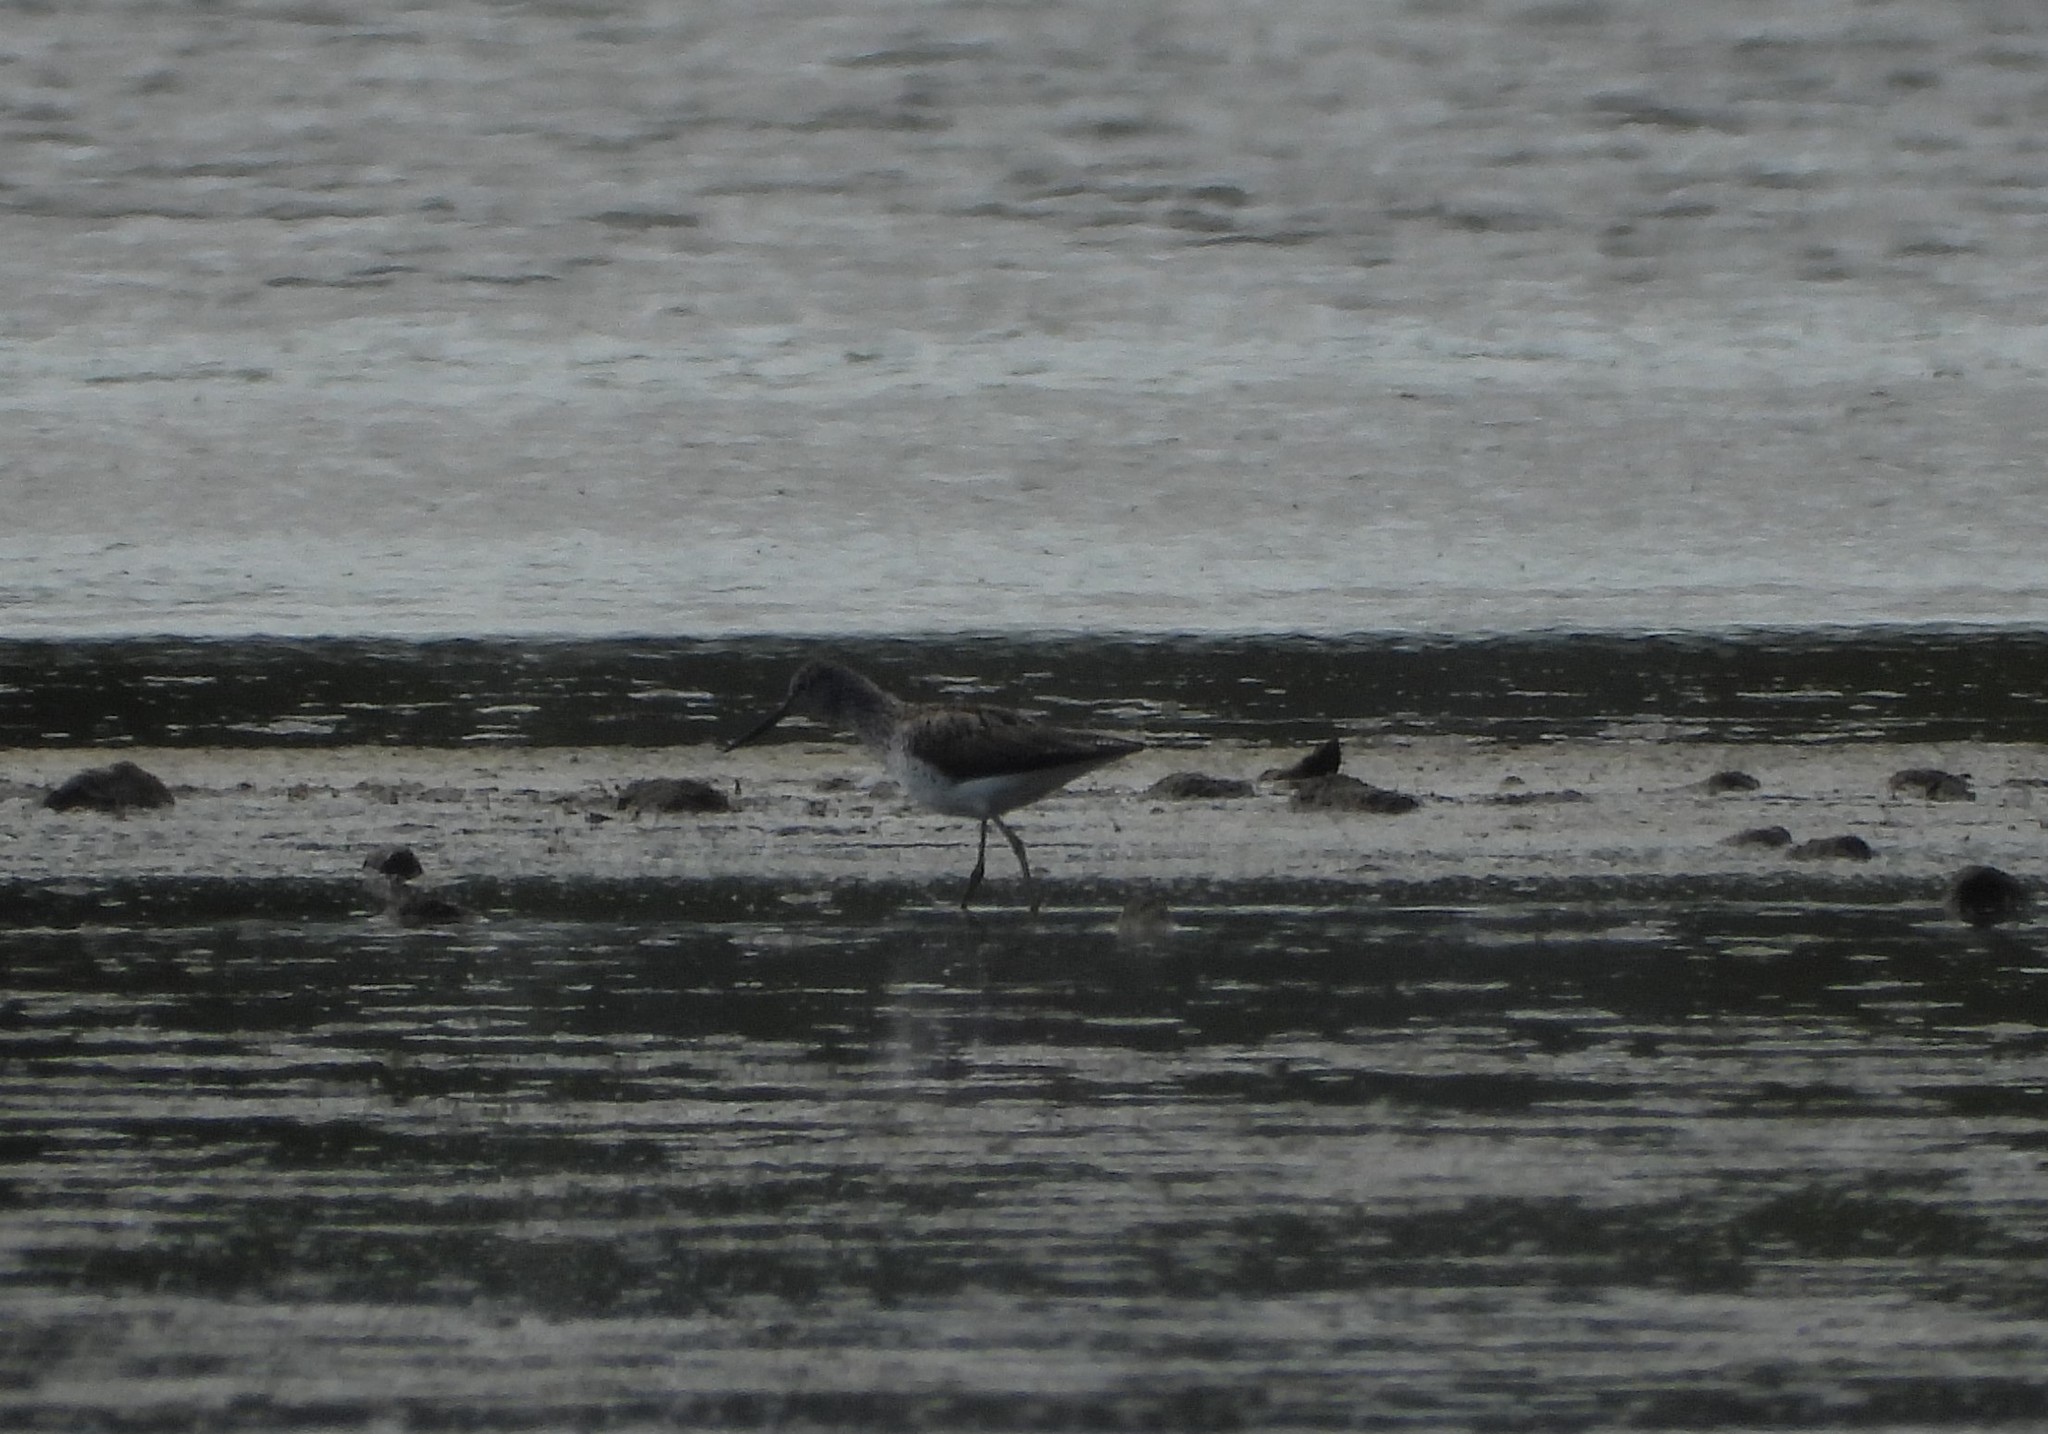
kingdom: Animalia
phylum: Chordata
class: Aves
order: Charadriiformes
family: Scolopacidae
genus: Tringa
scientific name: Tringa nebularia
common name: Common greenshank
